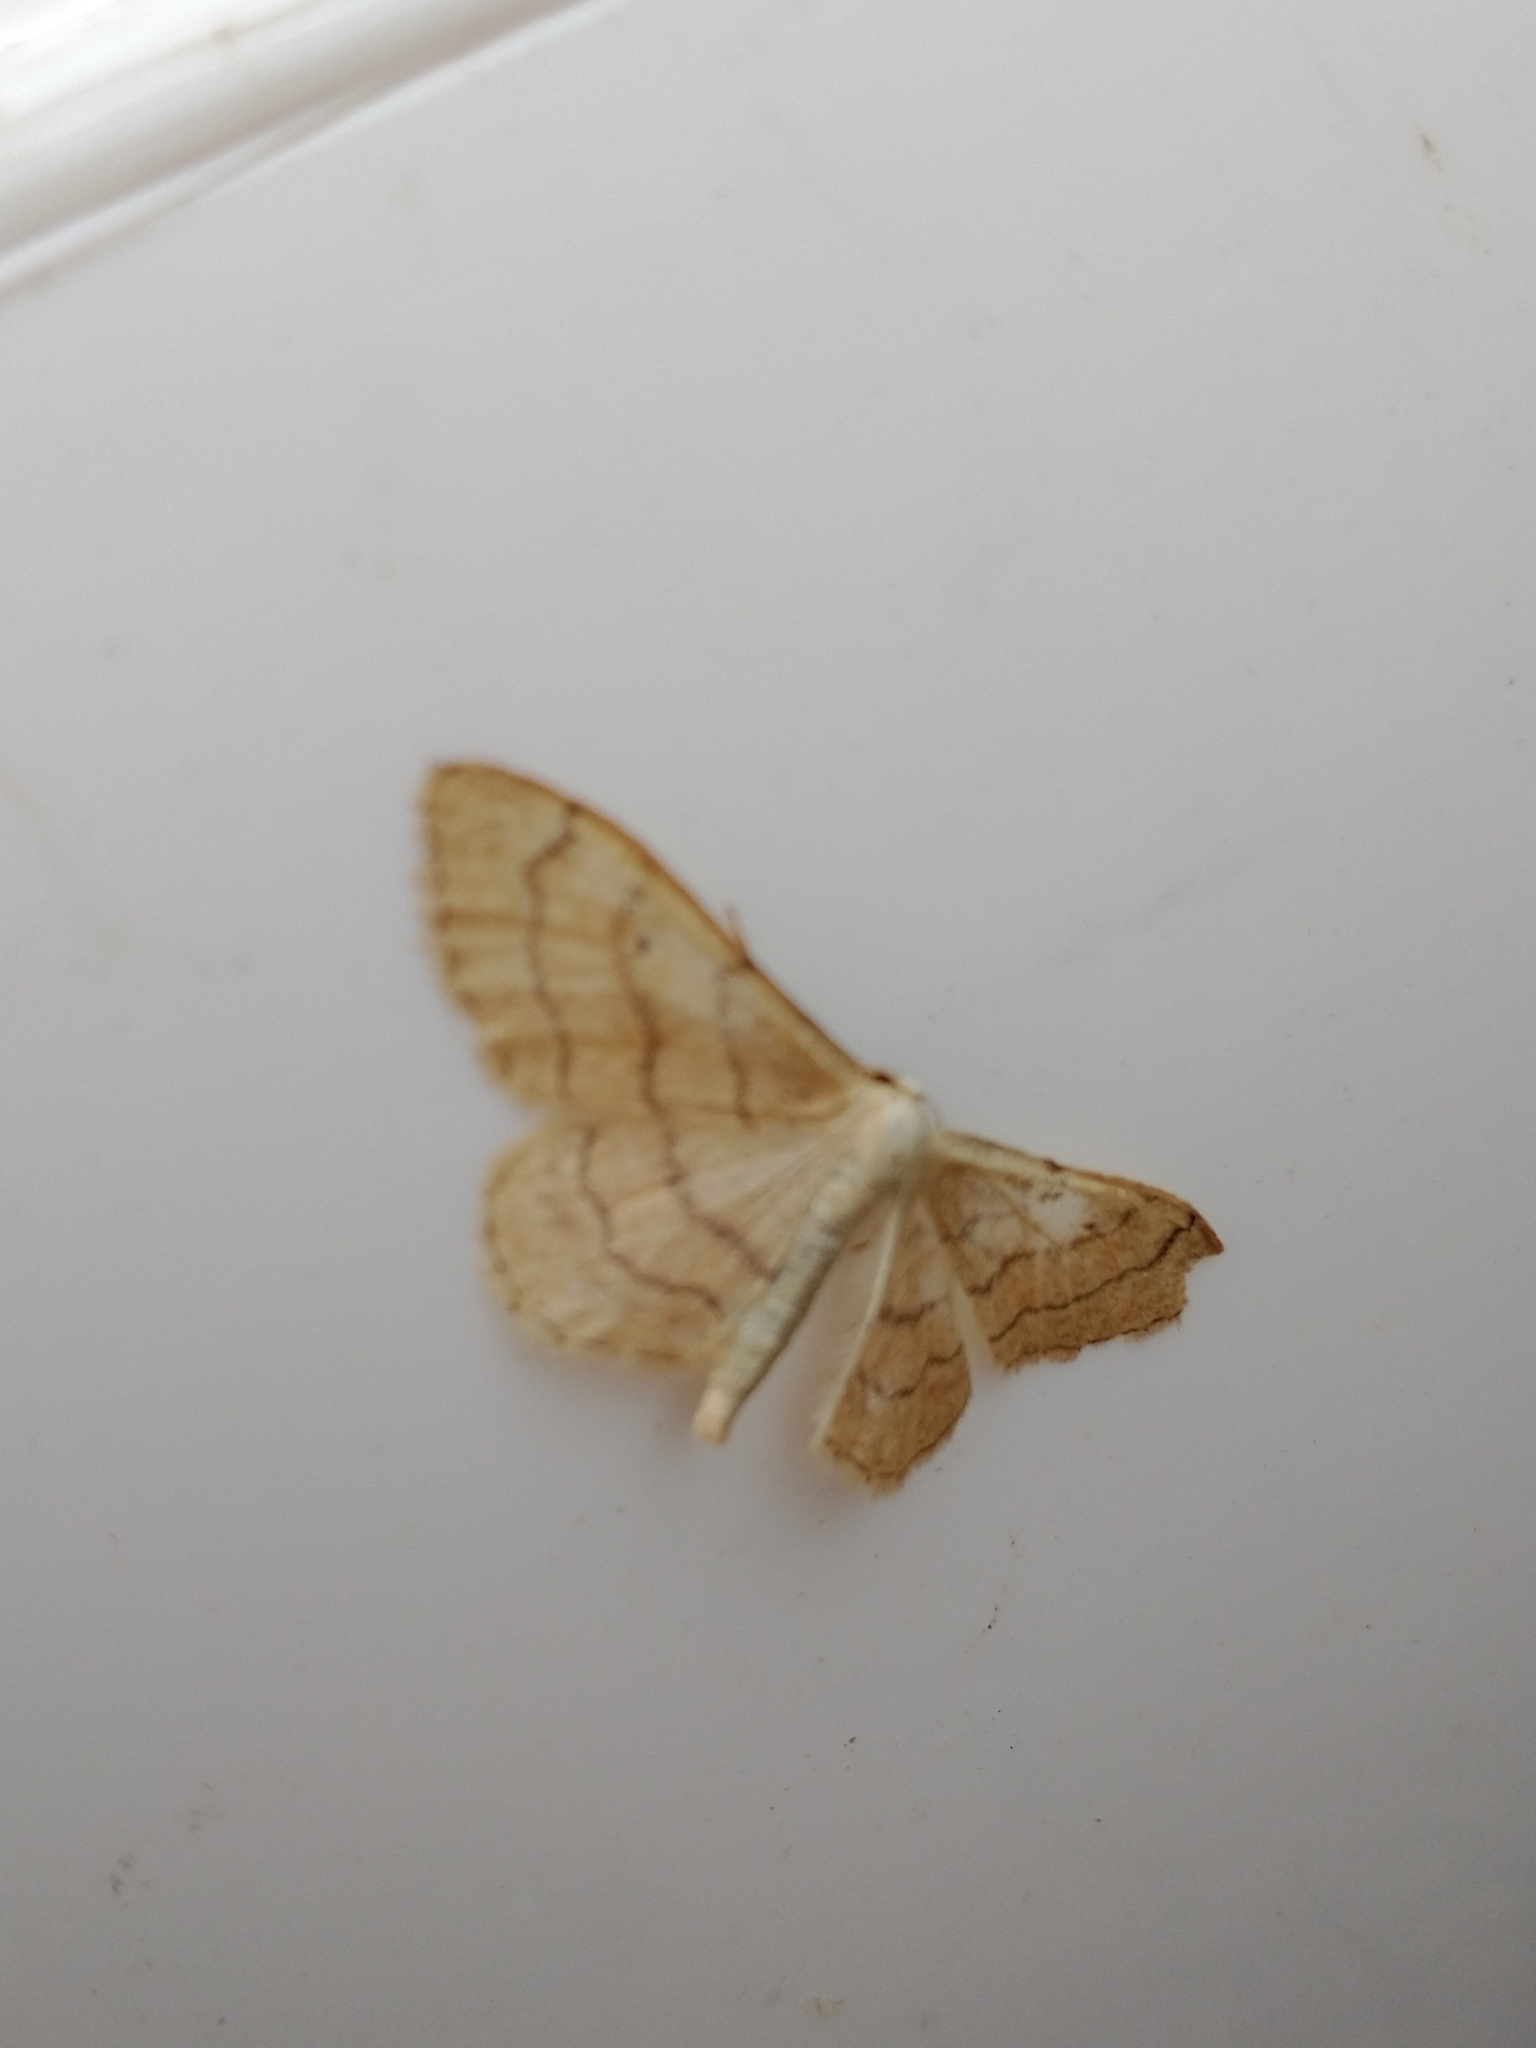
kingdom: Animalia
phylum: Arthropoda
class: Insecta
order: Lepidoptera
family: Geometridae
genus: Idaea
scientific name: Idaea aversata
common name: Riband wave
